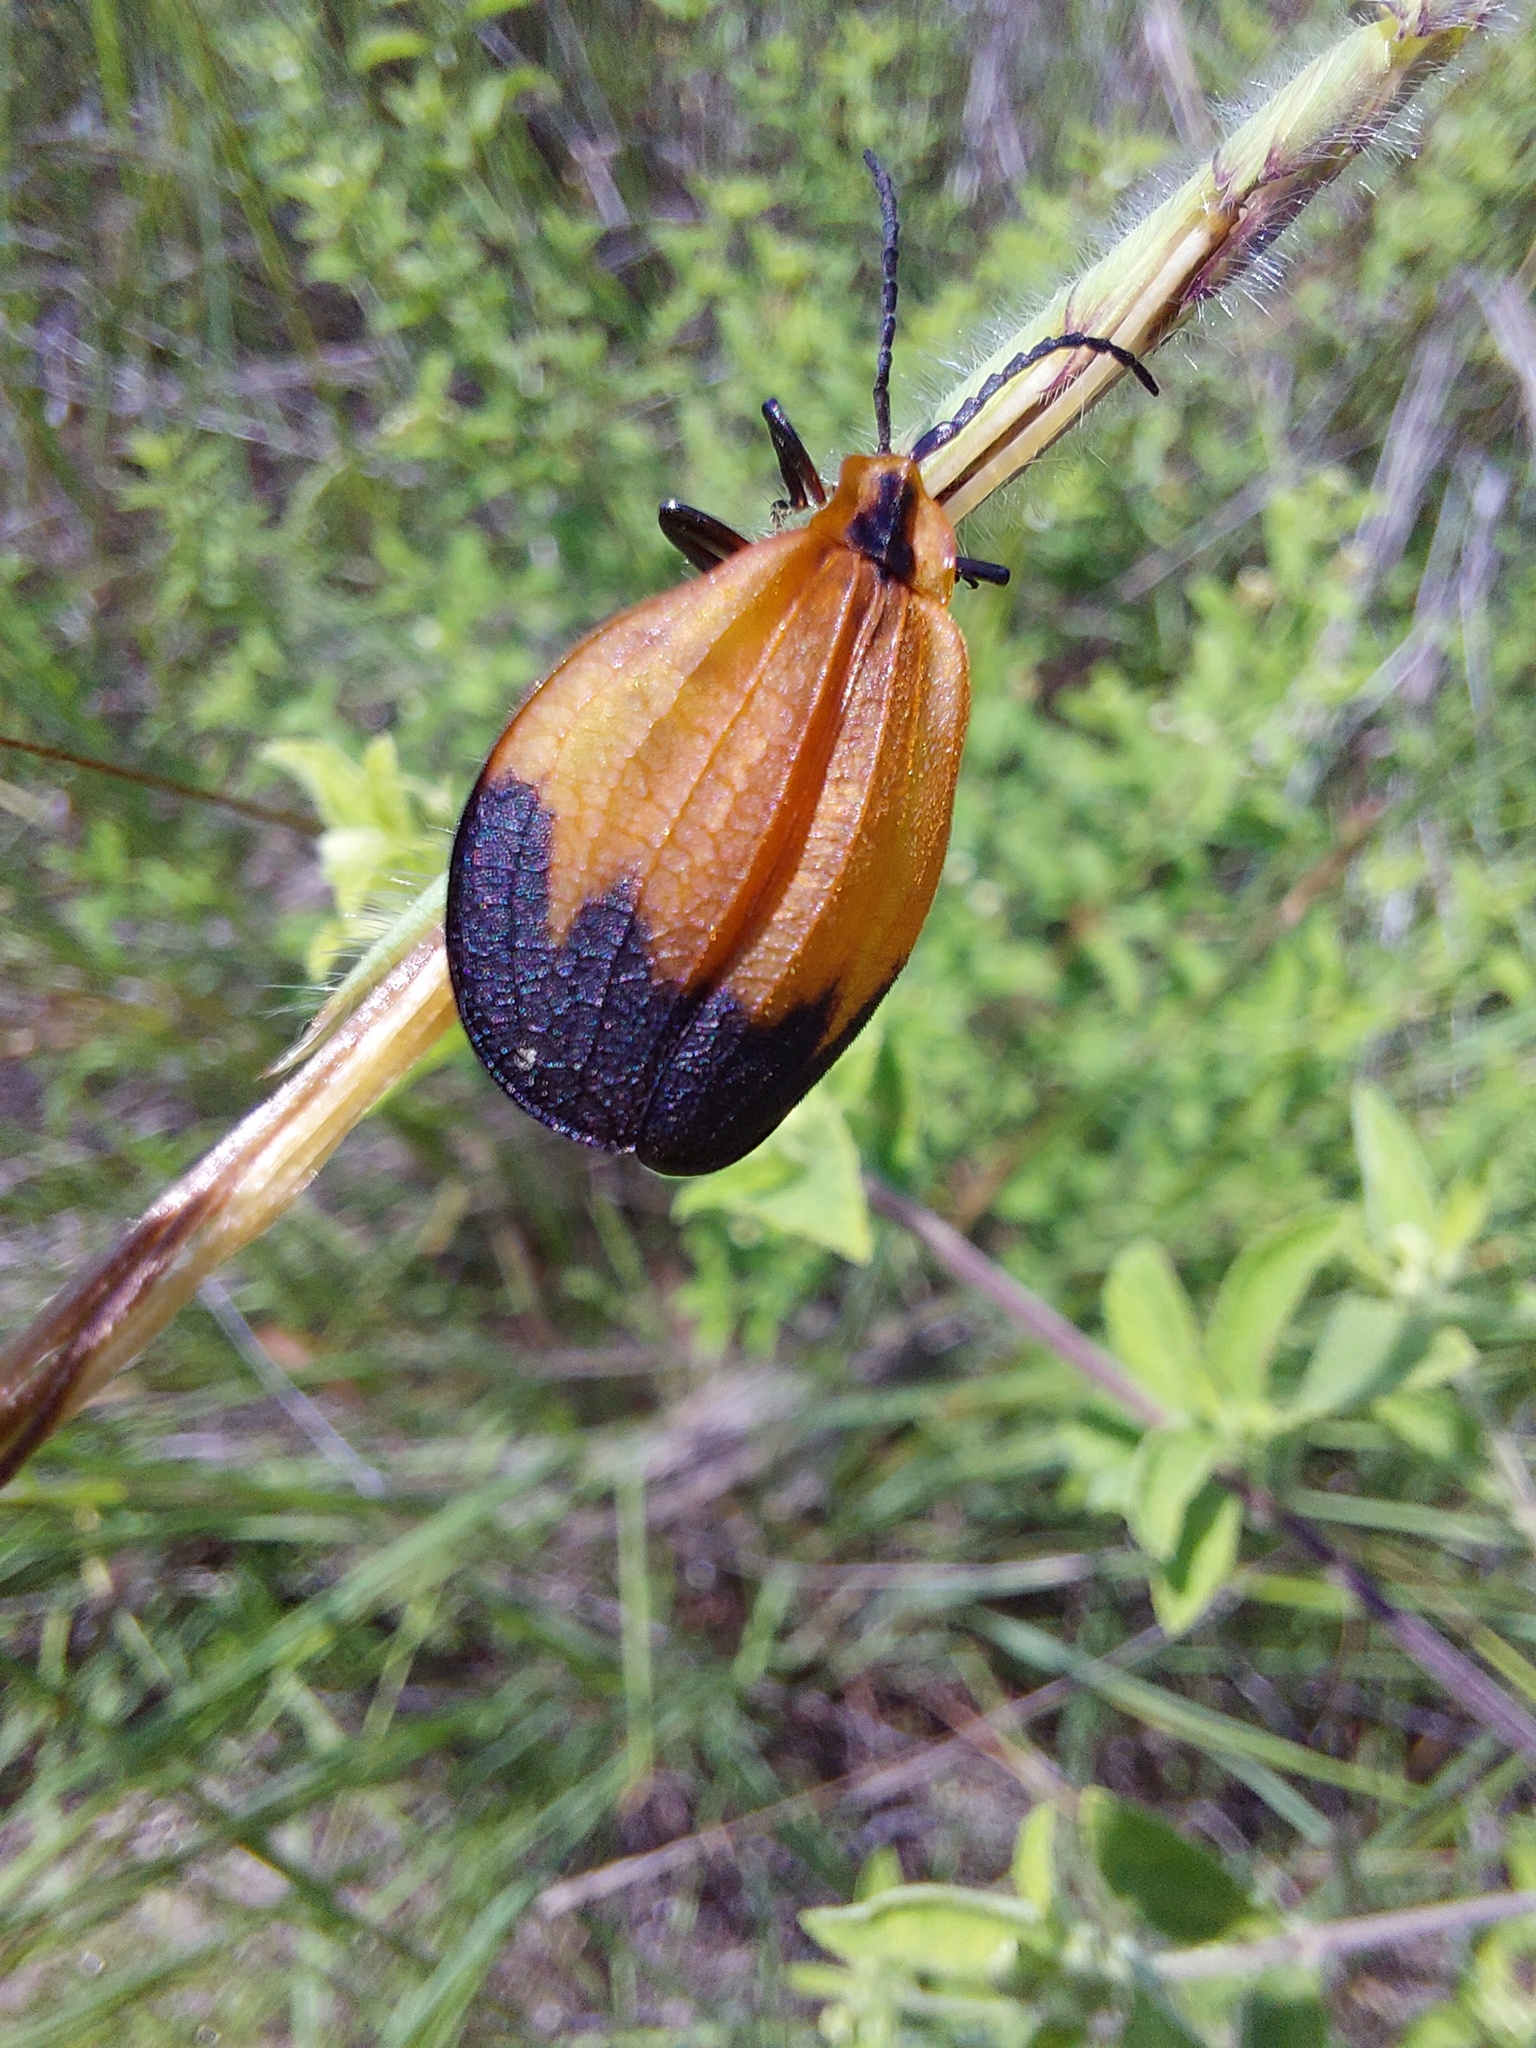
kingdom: Animalia
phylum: Arthropoda
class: Insecta
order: Coleoptera
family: Lycidae
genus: Lycus
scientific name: Lycus
